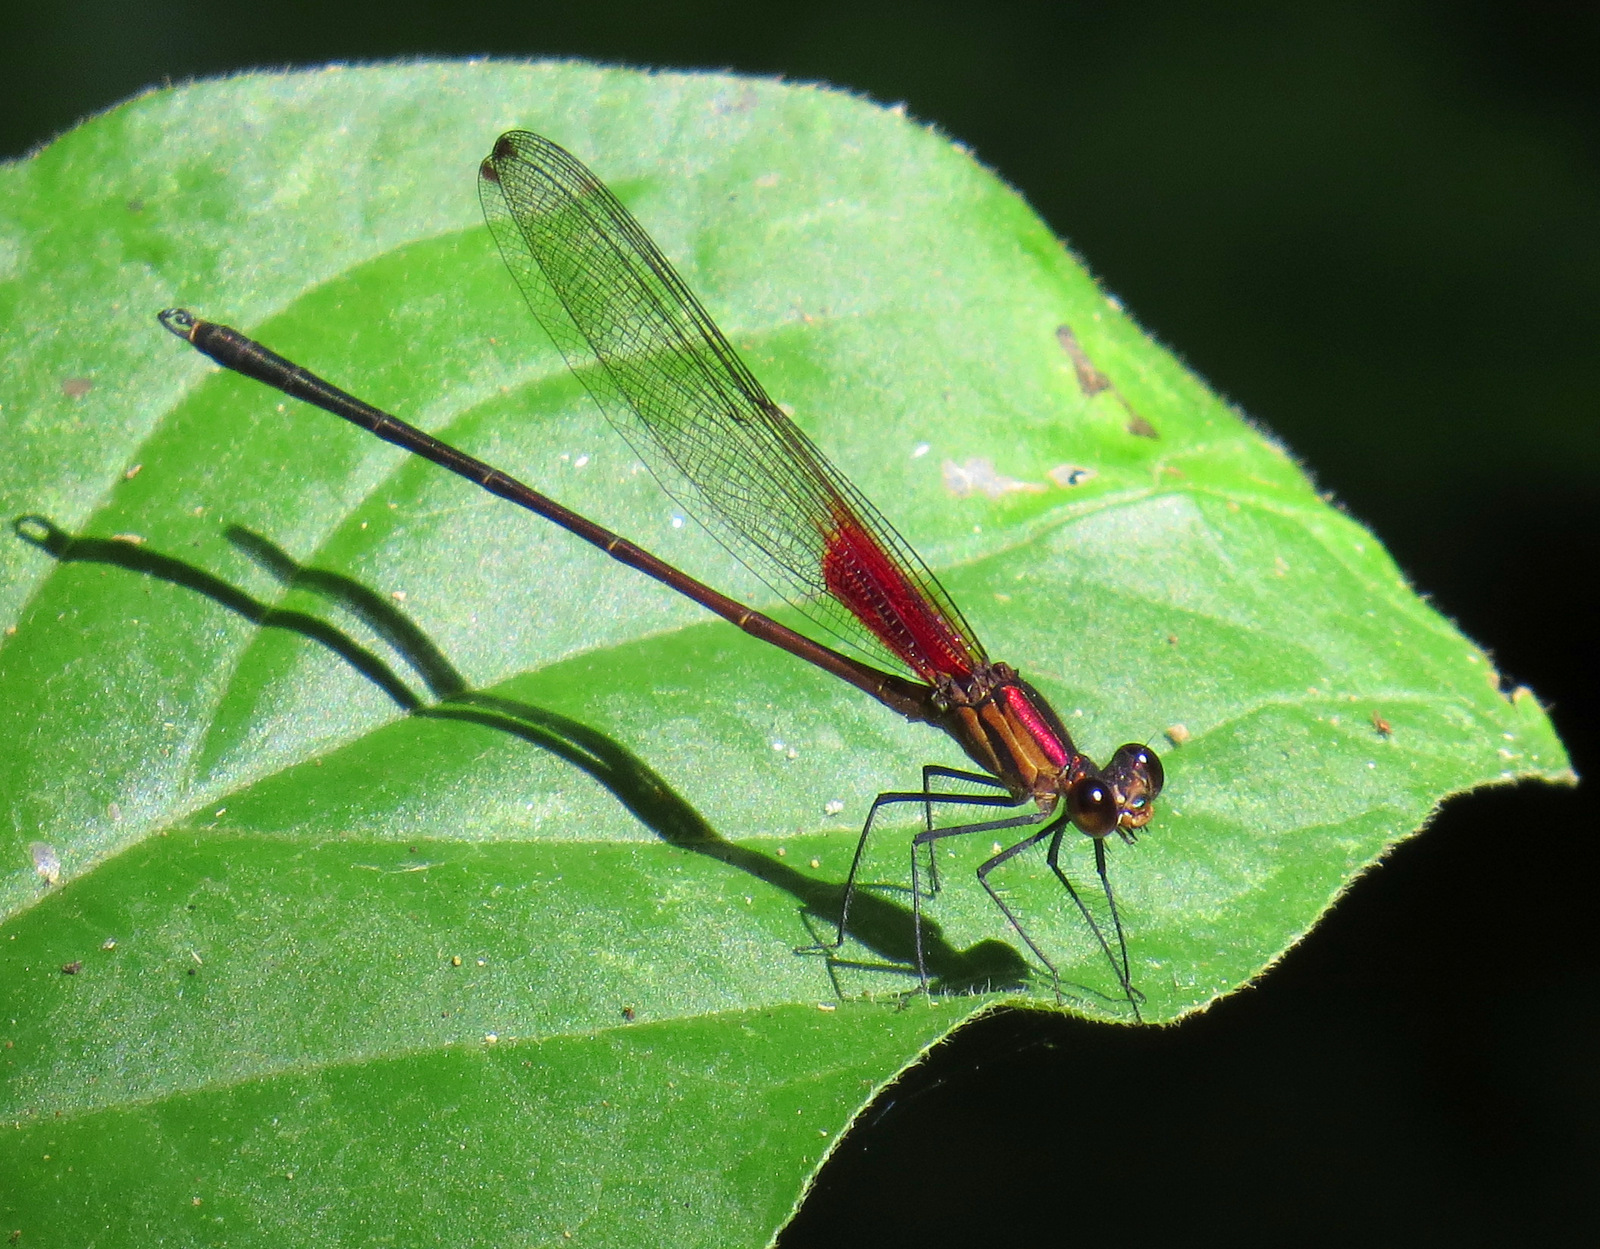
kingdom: Animalia
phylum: Arthropoda
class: Insecta
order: Odonata
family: Calopterygidae
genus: Hetaerina
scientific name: Hetaerina occisa
